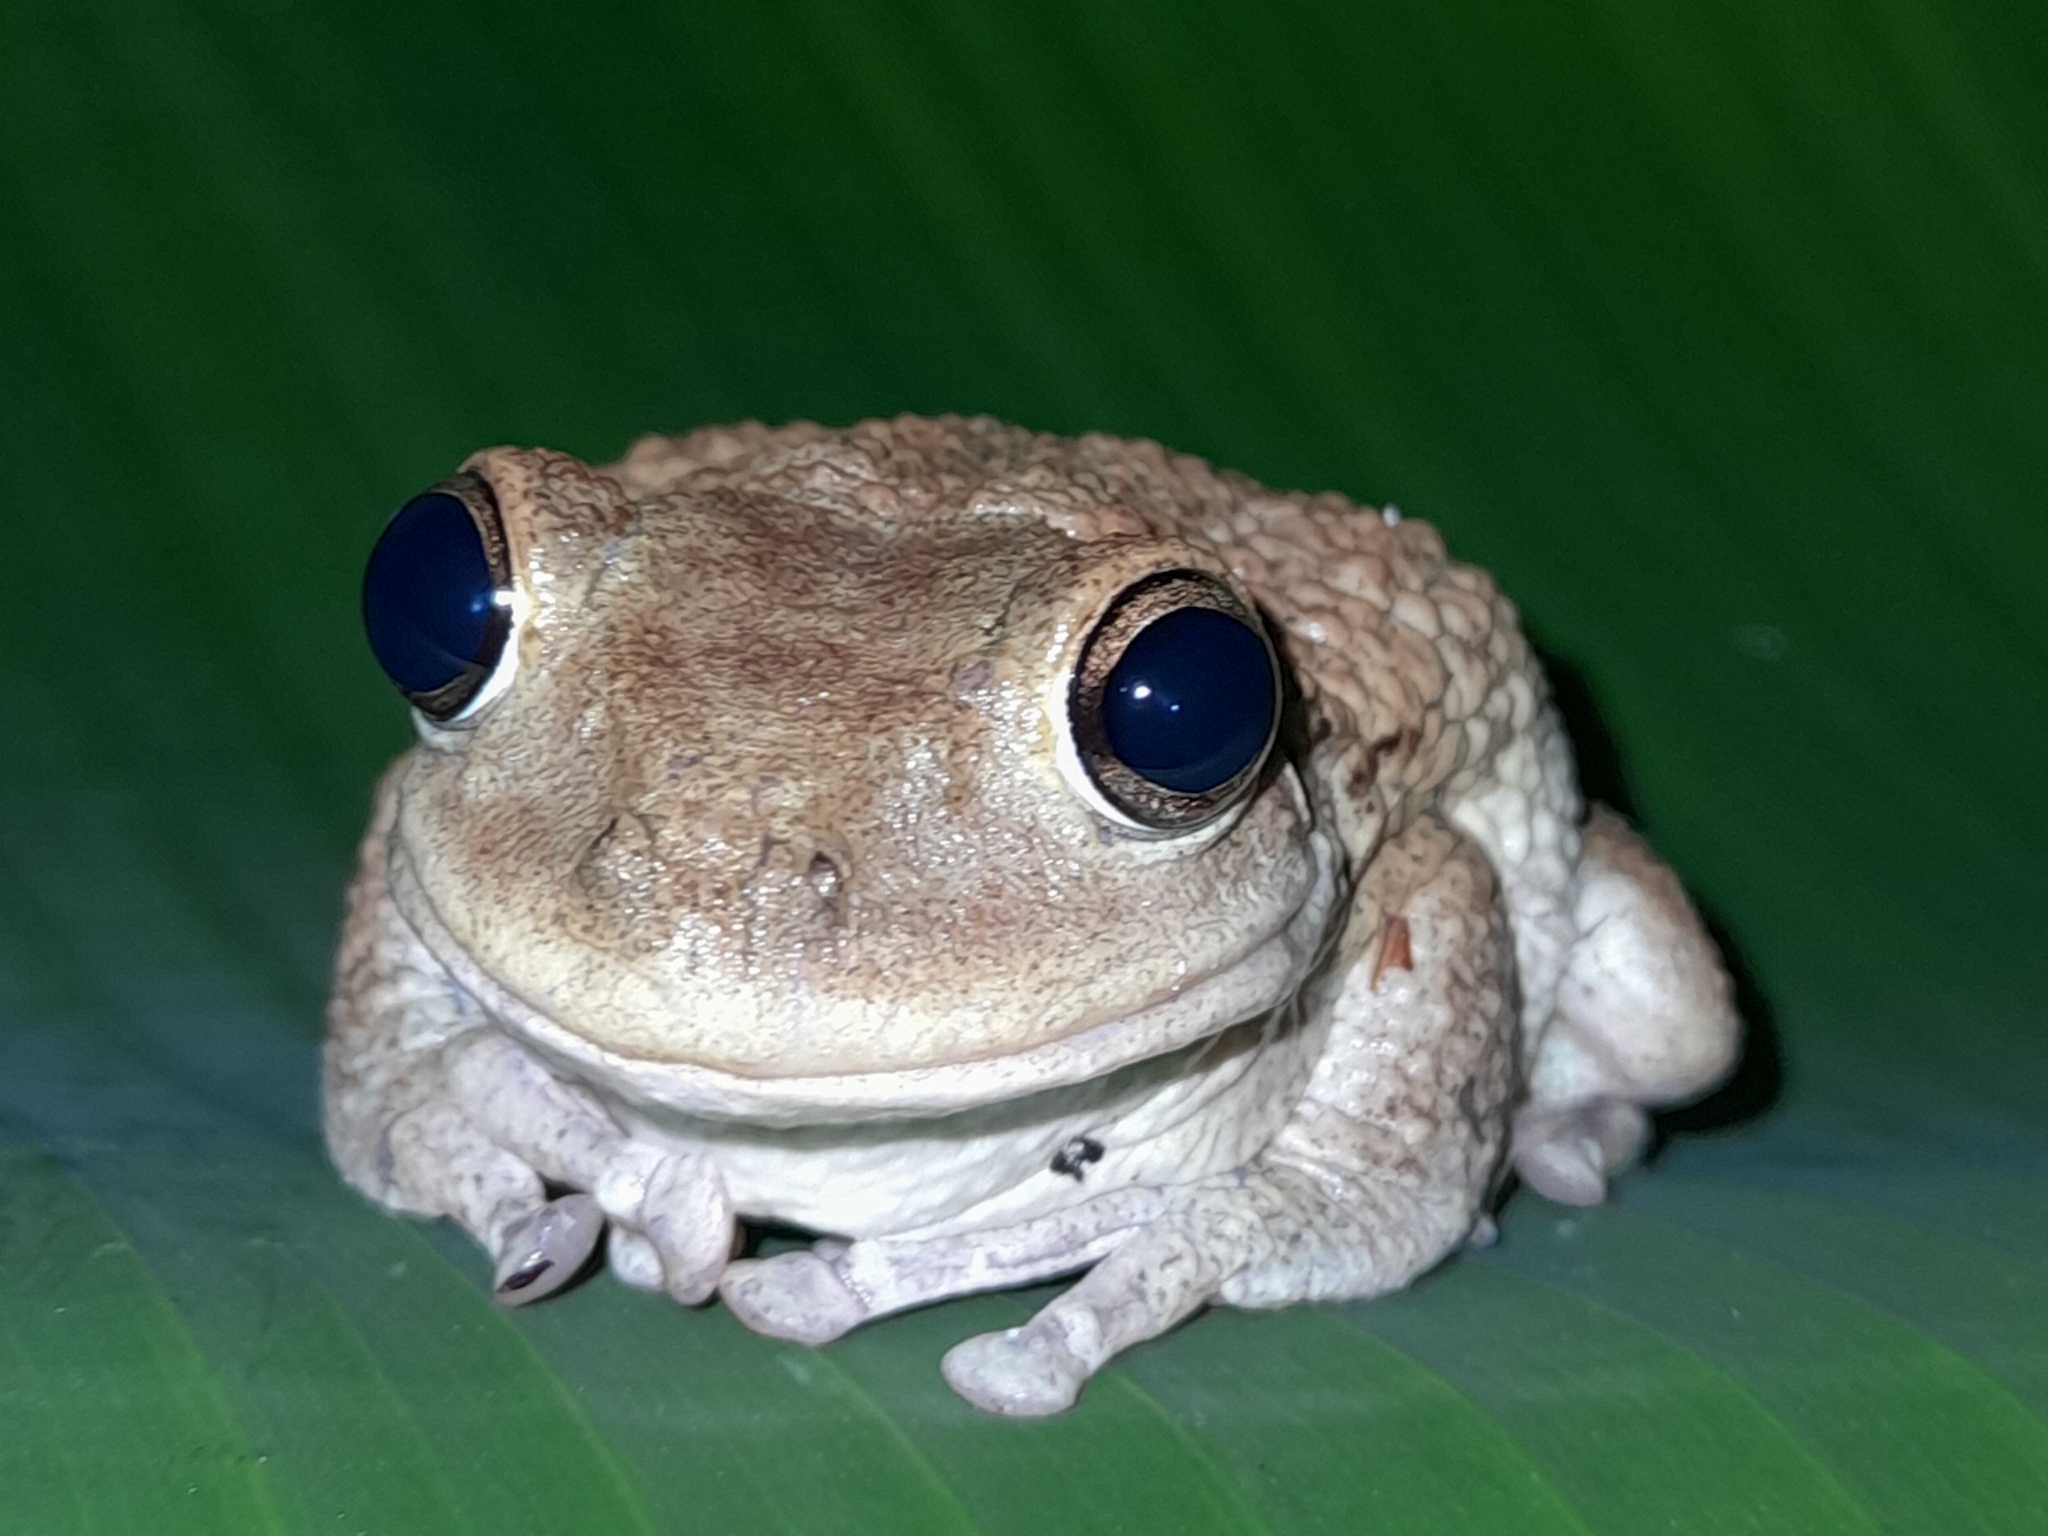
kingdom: Animalia
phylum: Chordata
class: Amphibia
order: Anura
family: Hylidae
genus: Osteopilus
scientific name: Osteopilus septentrionalis
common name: Cuban treefrog
